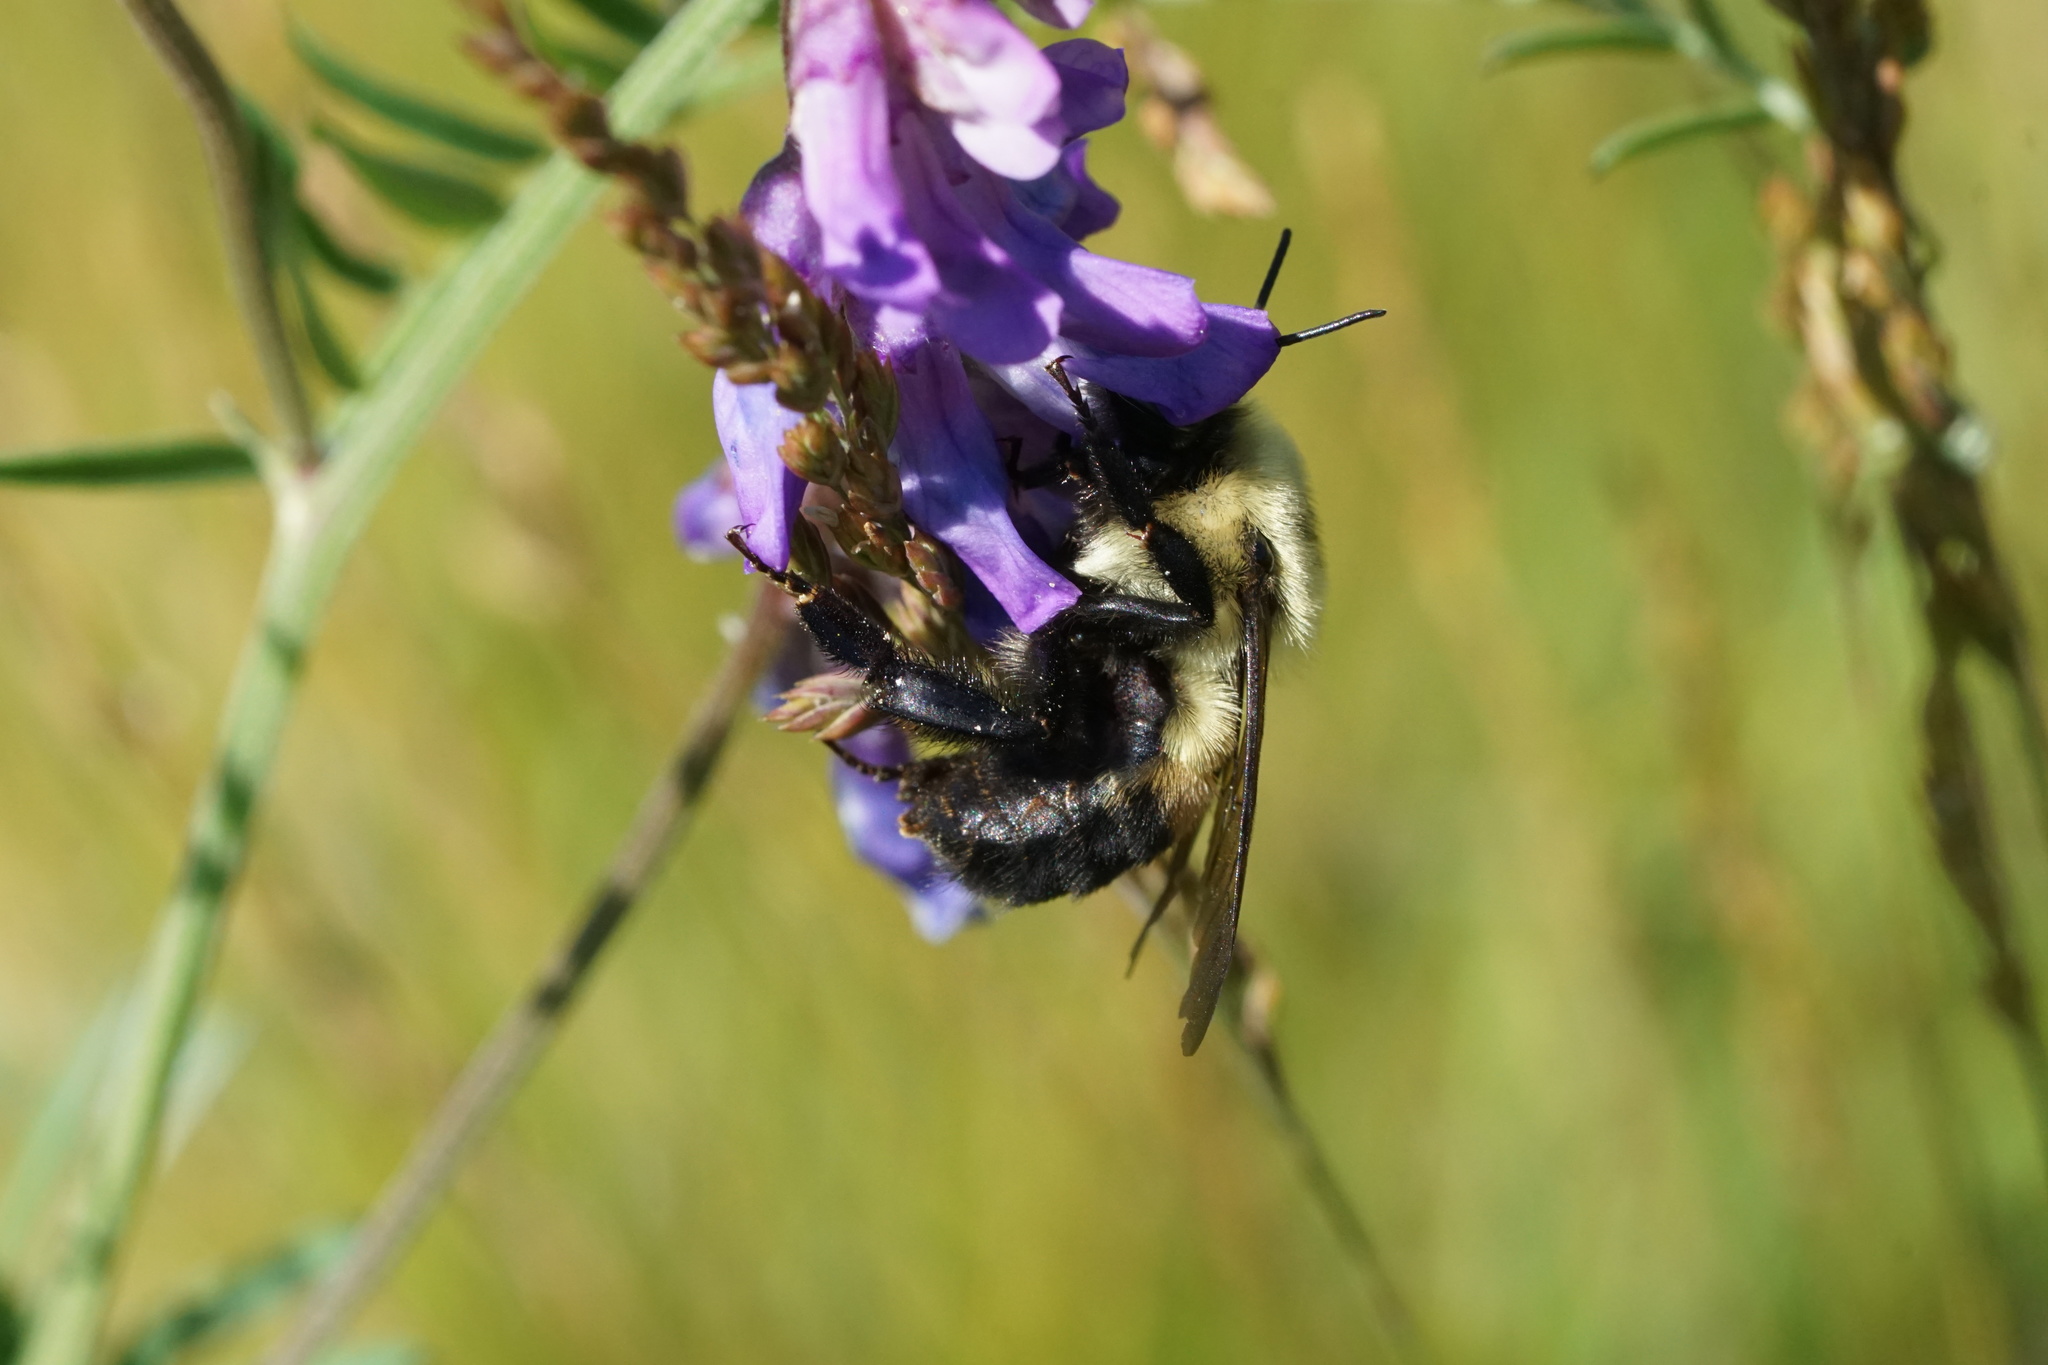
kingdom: Animalia
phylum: Arthropoda
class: Insecta
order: Hymenoptera
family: Apidae
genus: Bombus
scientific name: Bombus griseocollis
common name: Brown-belted bumble bee
